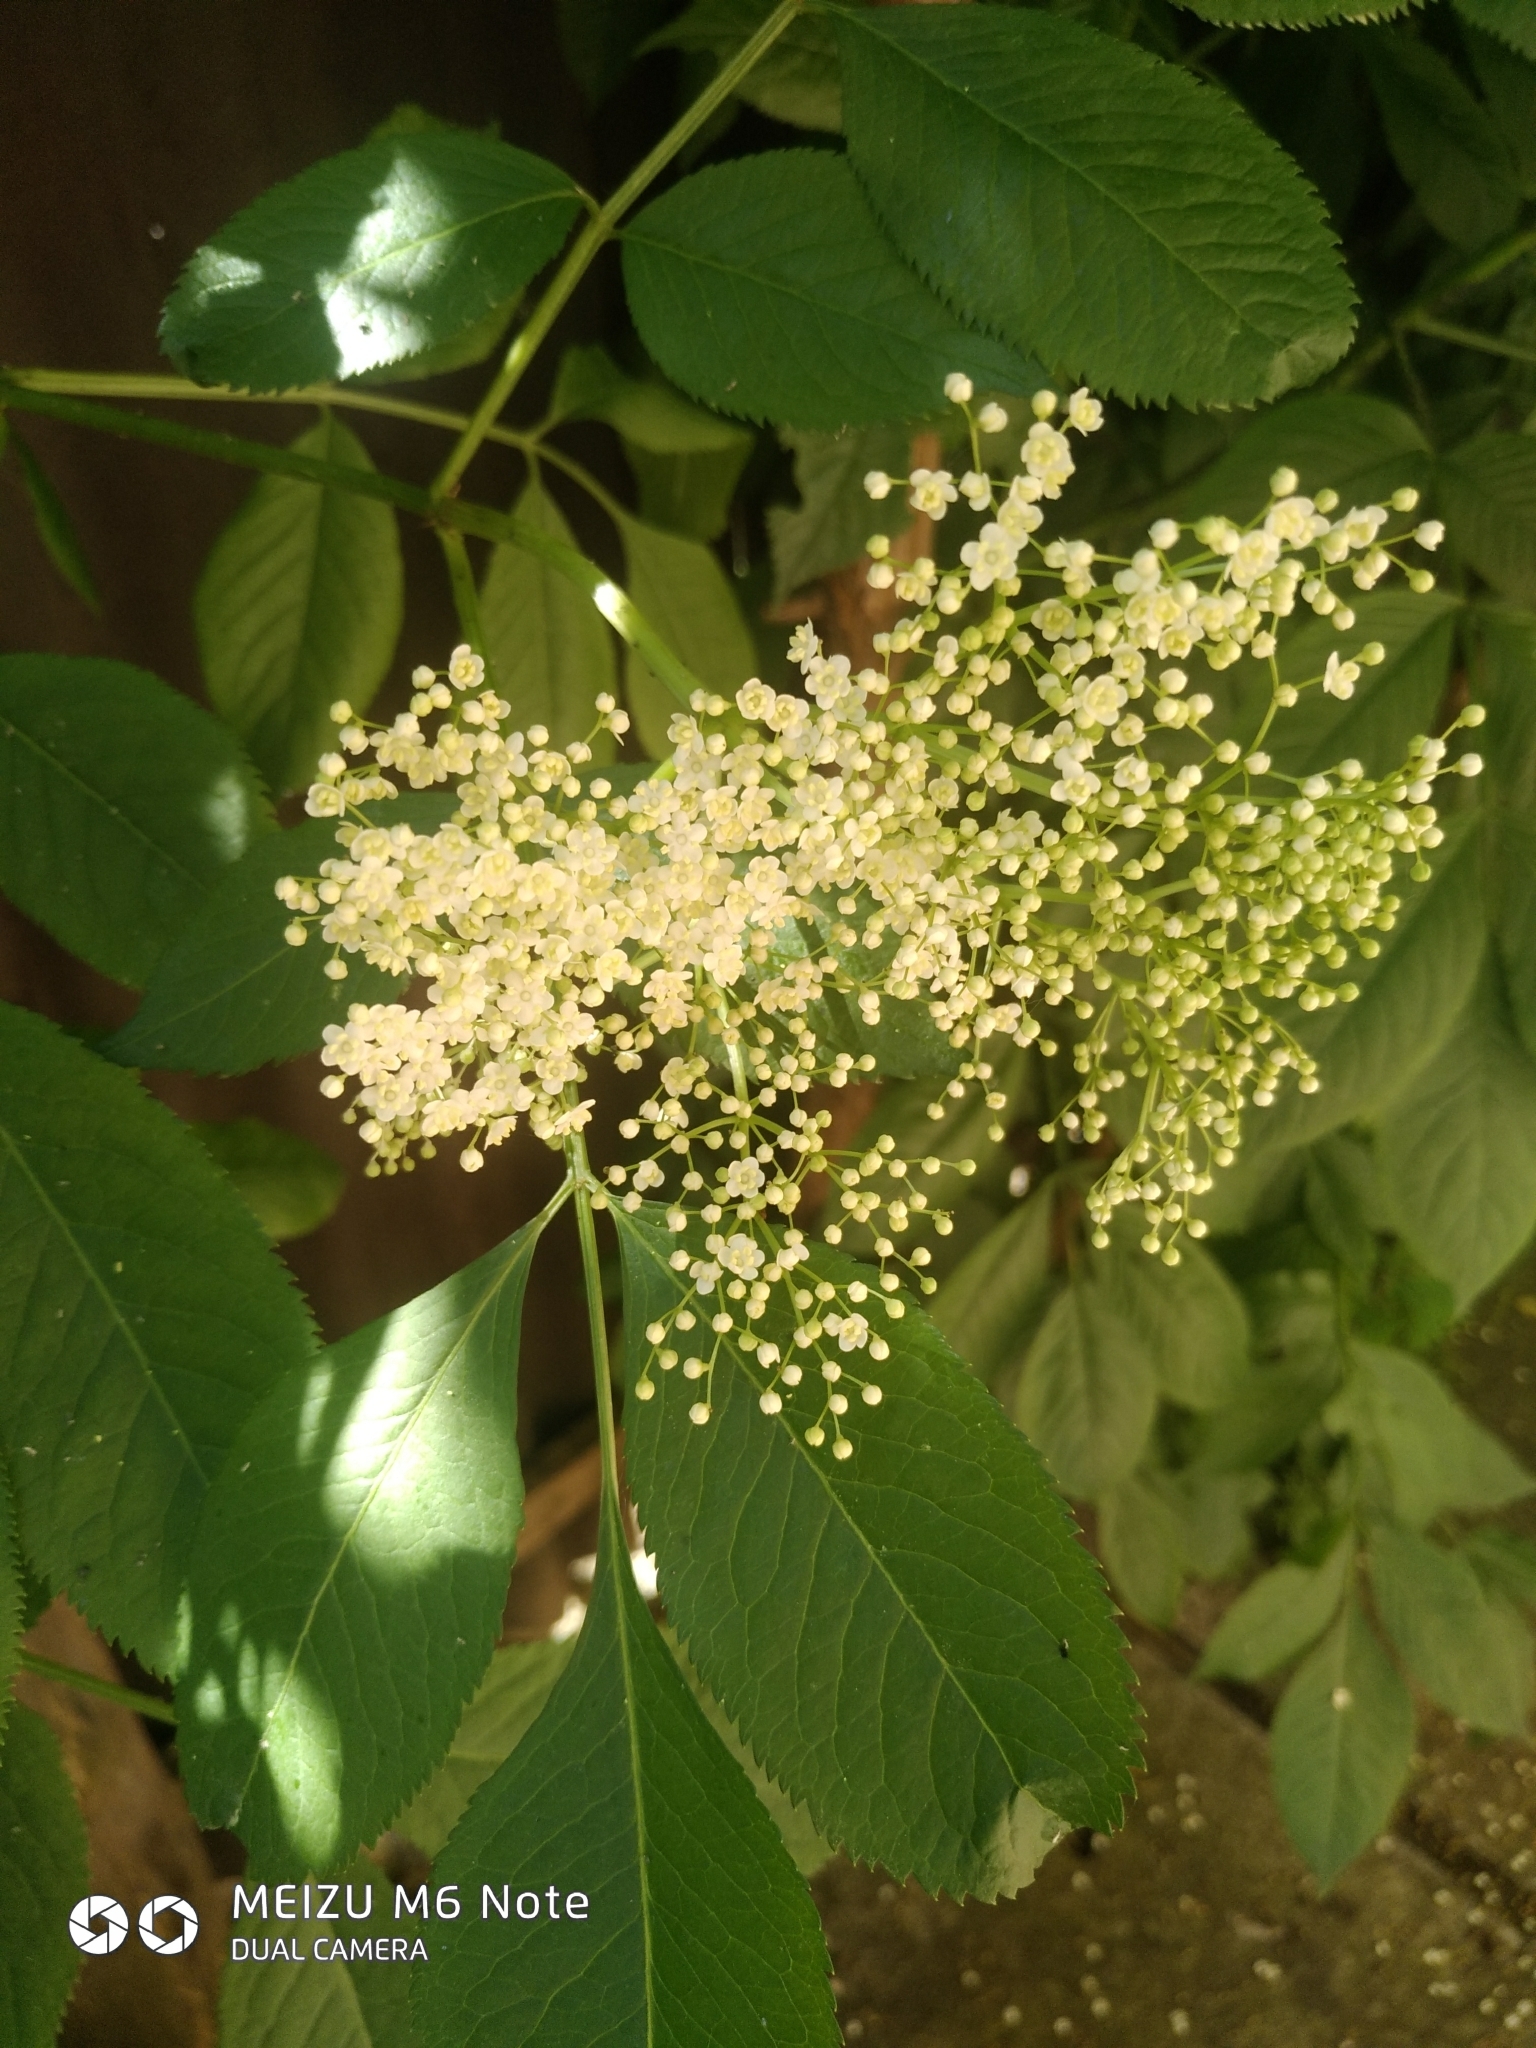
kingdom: Plantae
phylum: Tracheophyta
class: Magnoliopsida
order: Dipsacales
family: Viburnaceae
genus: Sambucus
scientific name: Sambucus nigra
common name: Elder
